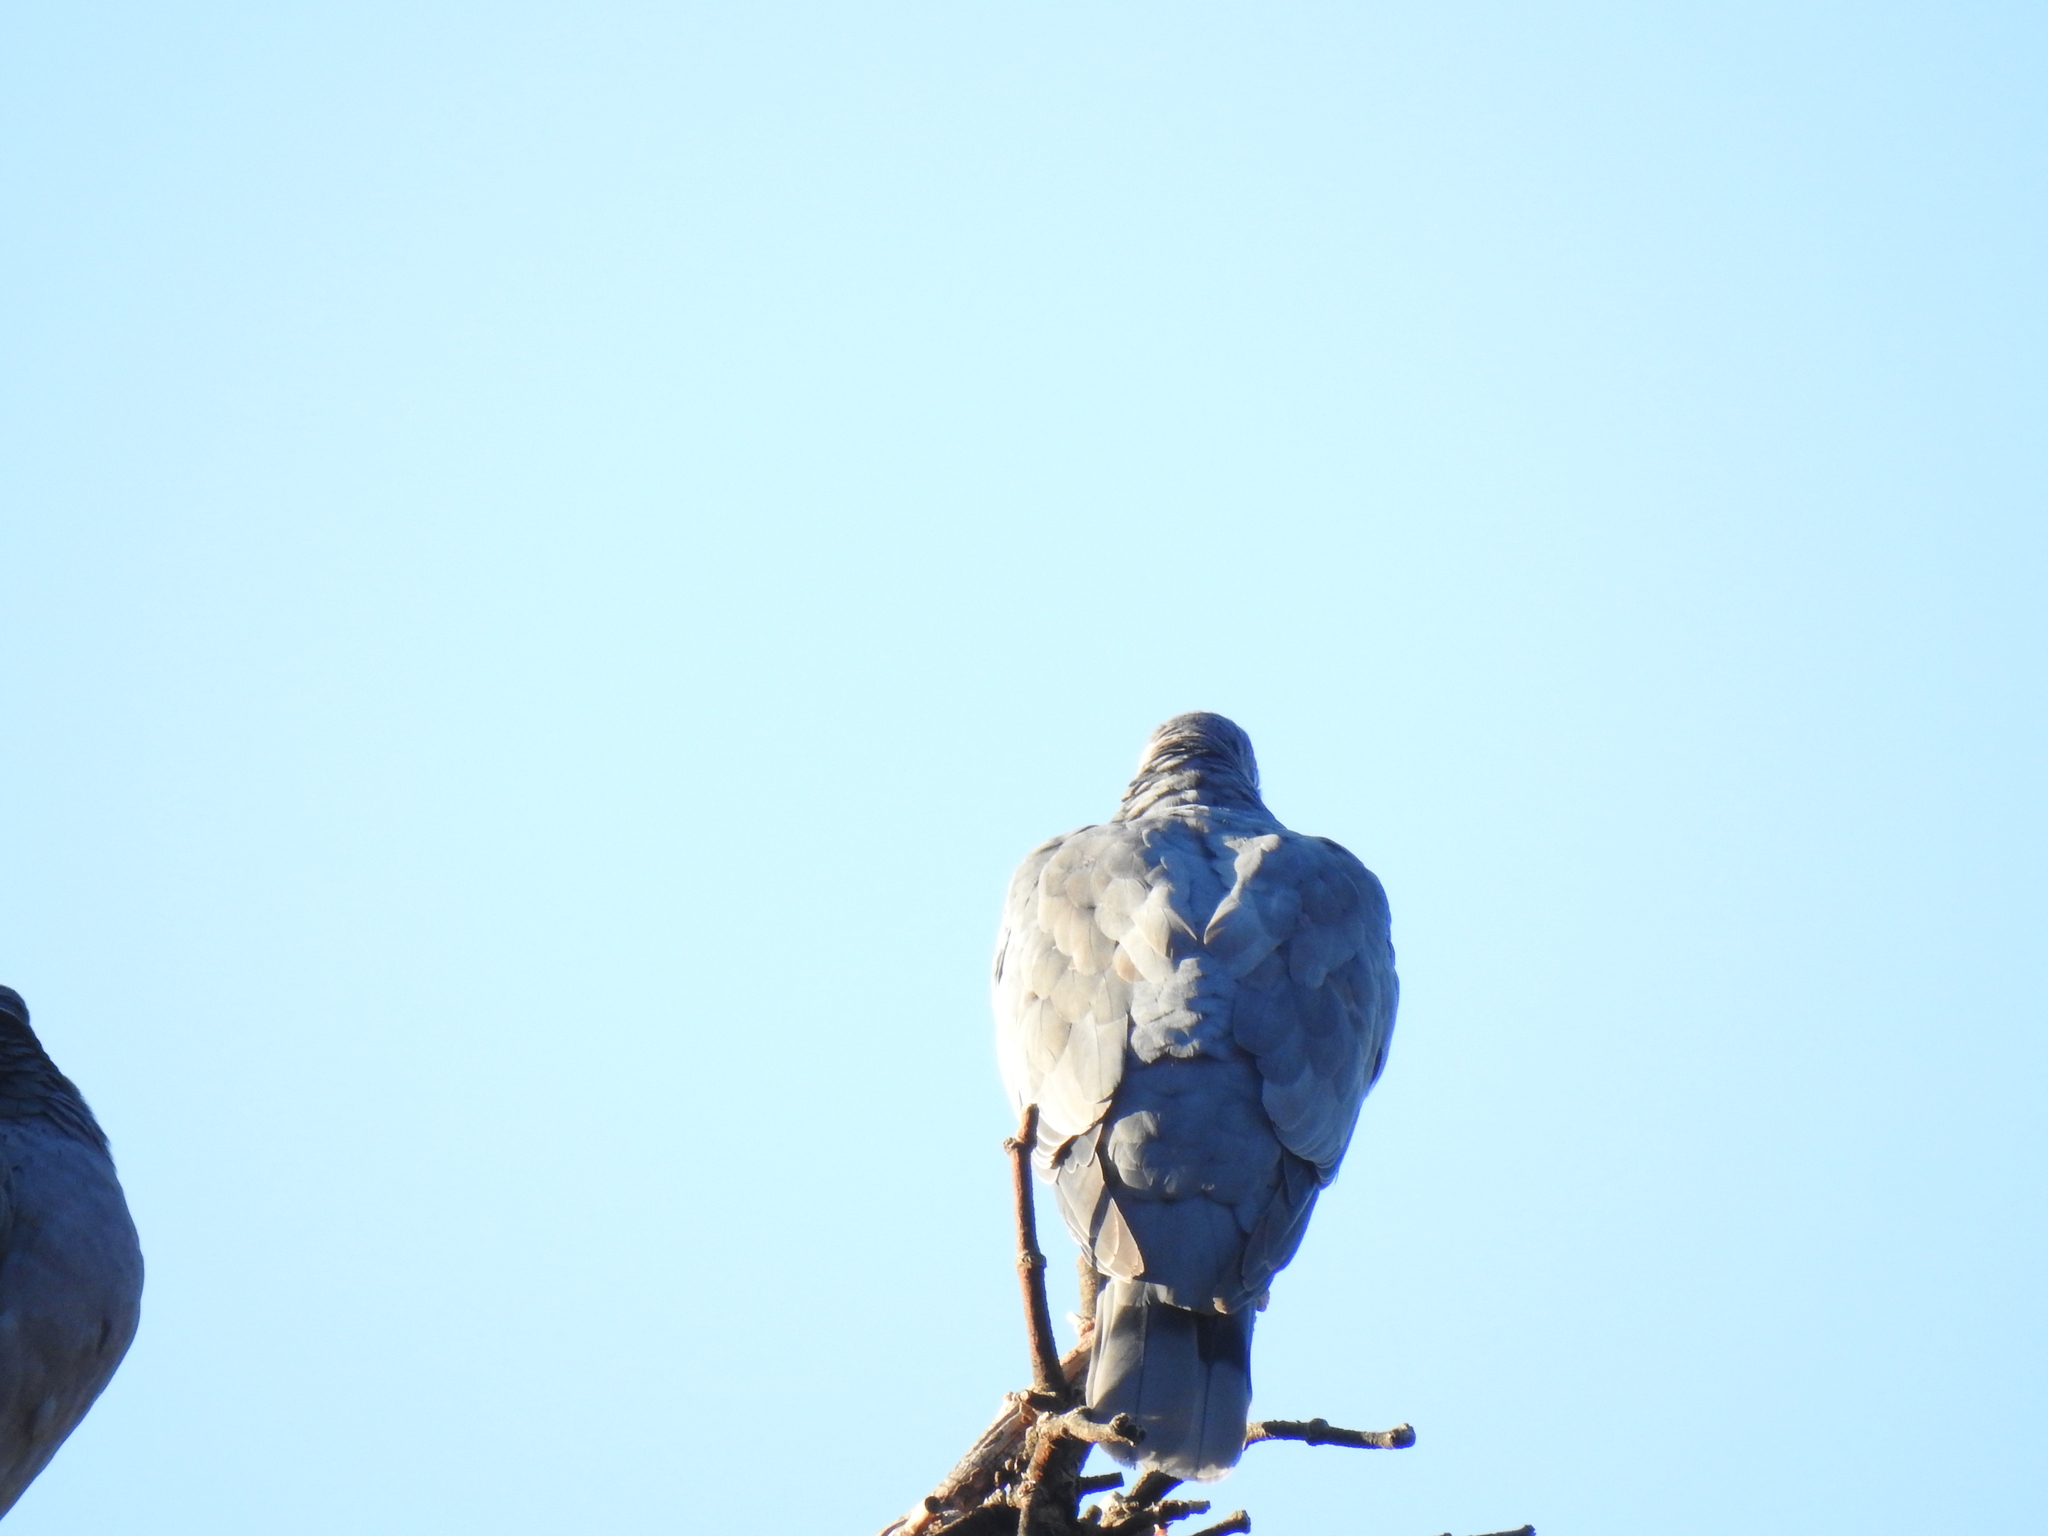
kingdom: Animalia
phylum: Chordata
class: Aves
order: Columbiformes
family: Columbidae
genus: Patagioenas
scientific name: Patagioenas fasciata
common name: Band-tailed pigeon
